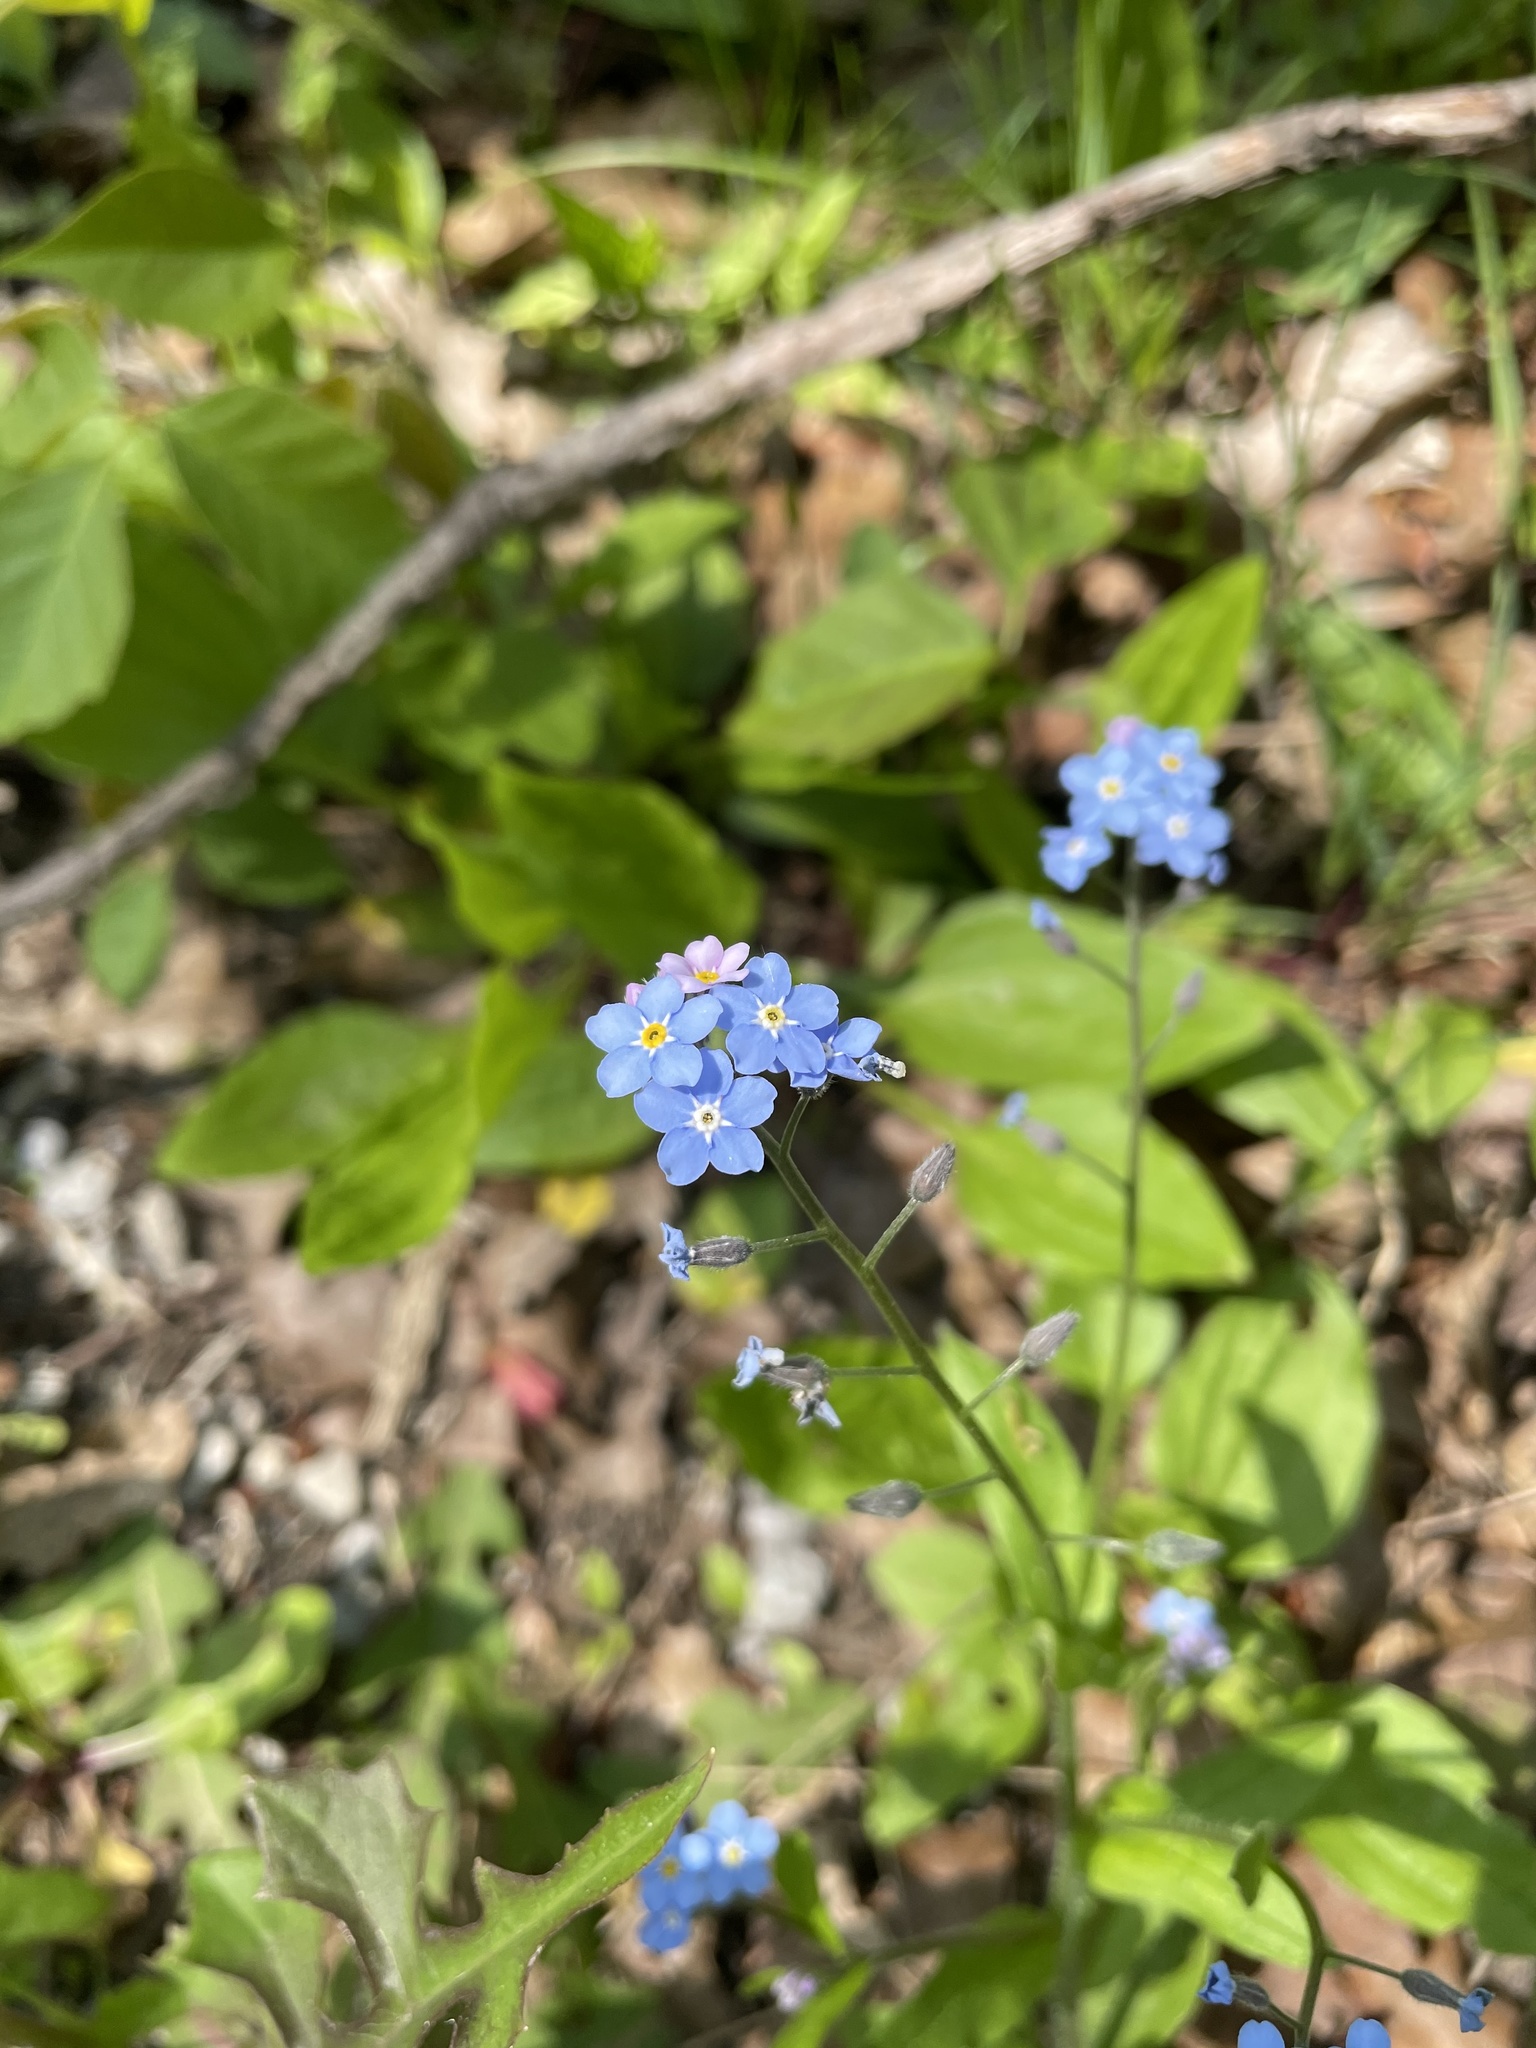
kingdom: Plantae
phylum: Tracheophyta
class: Magnoliopsida
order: Boraginales
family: Boraginaceae
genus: Myosotis
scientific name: Myosotis sylvatica
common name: Wood forget-me-not
